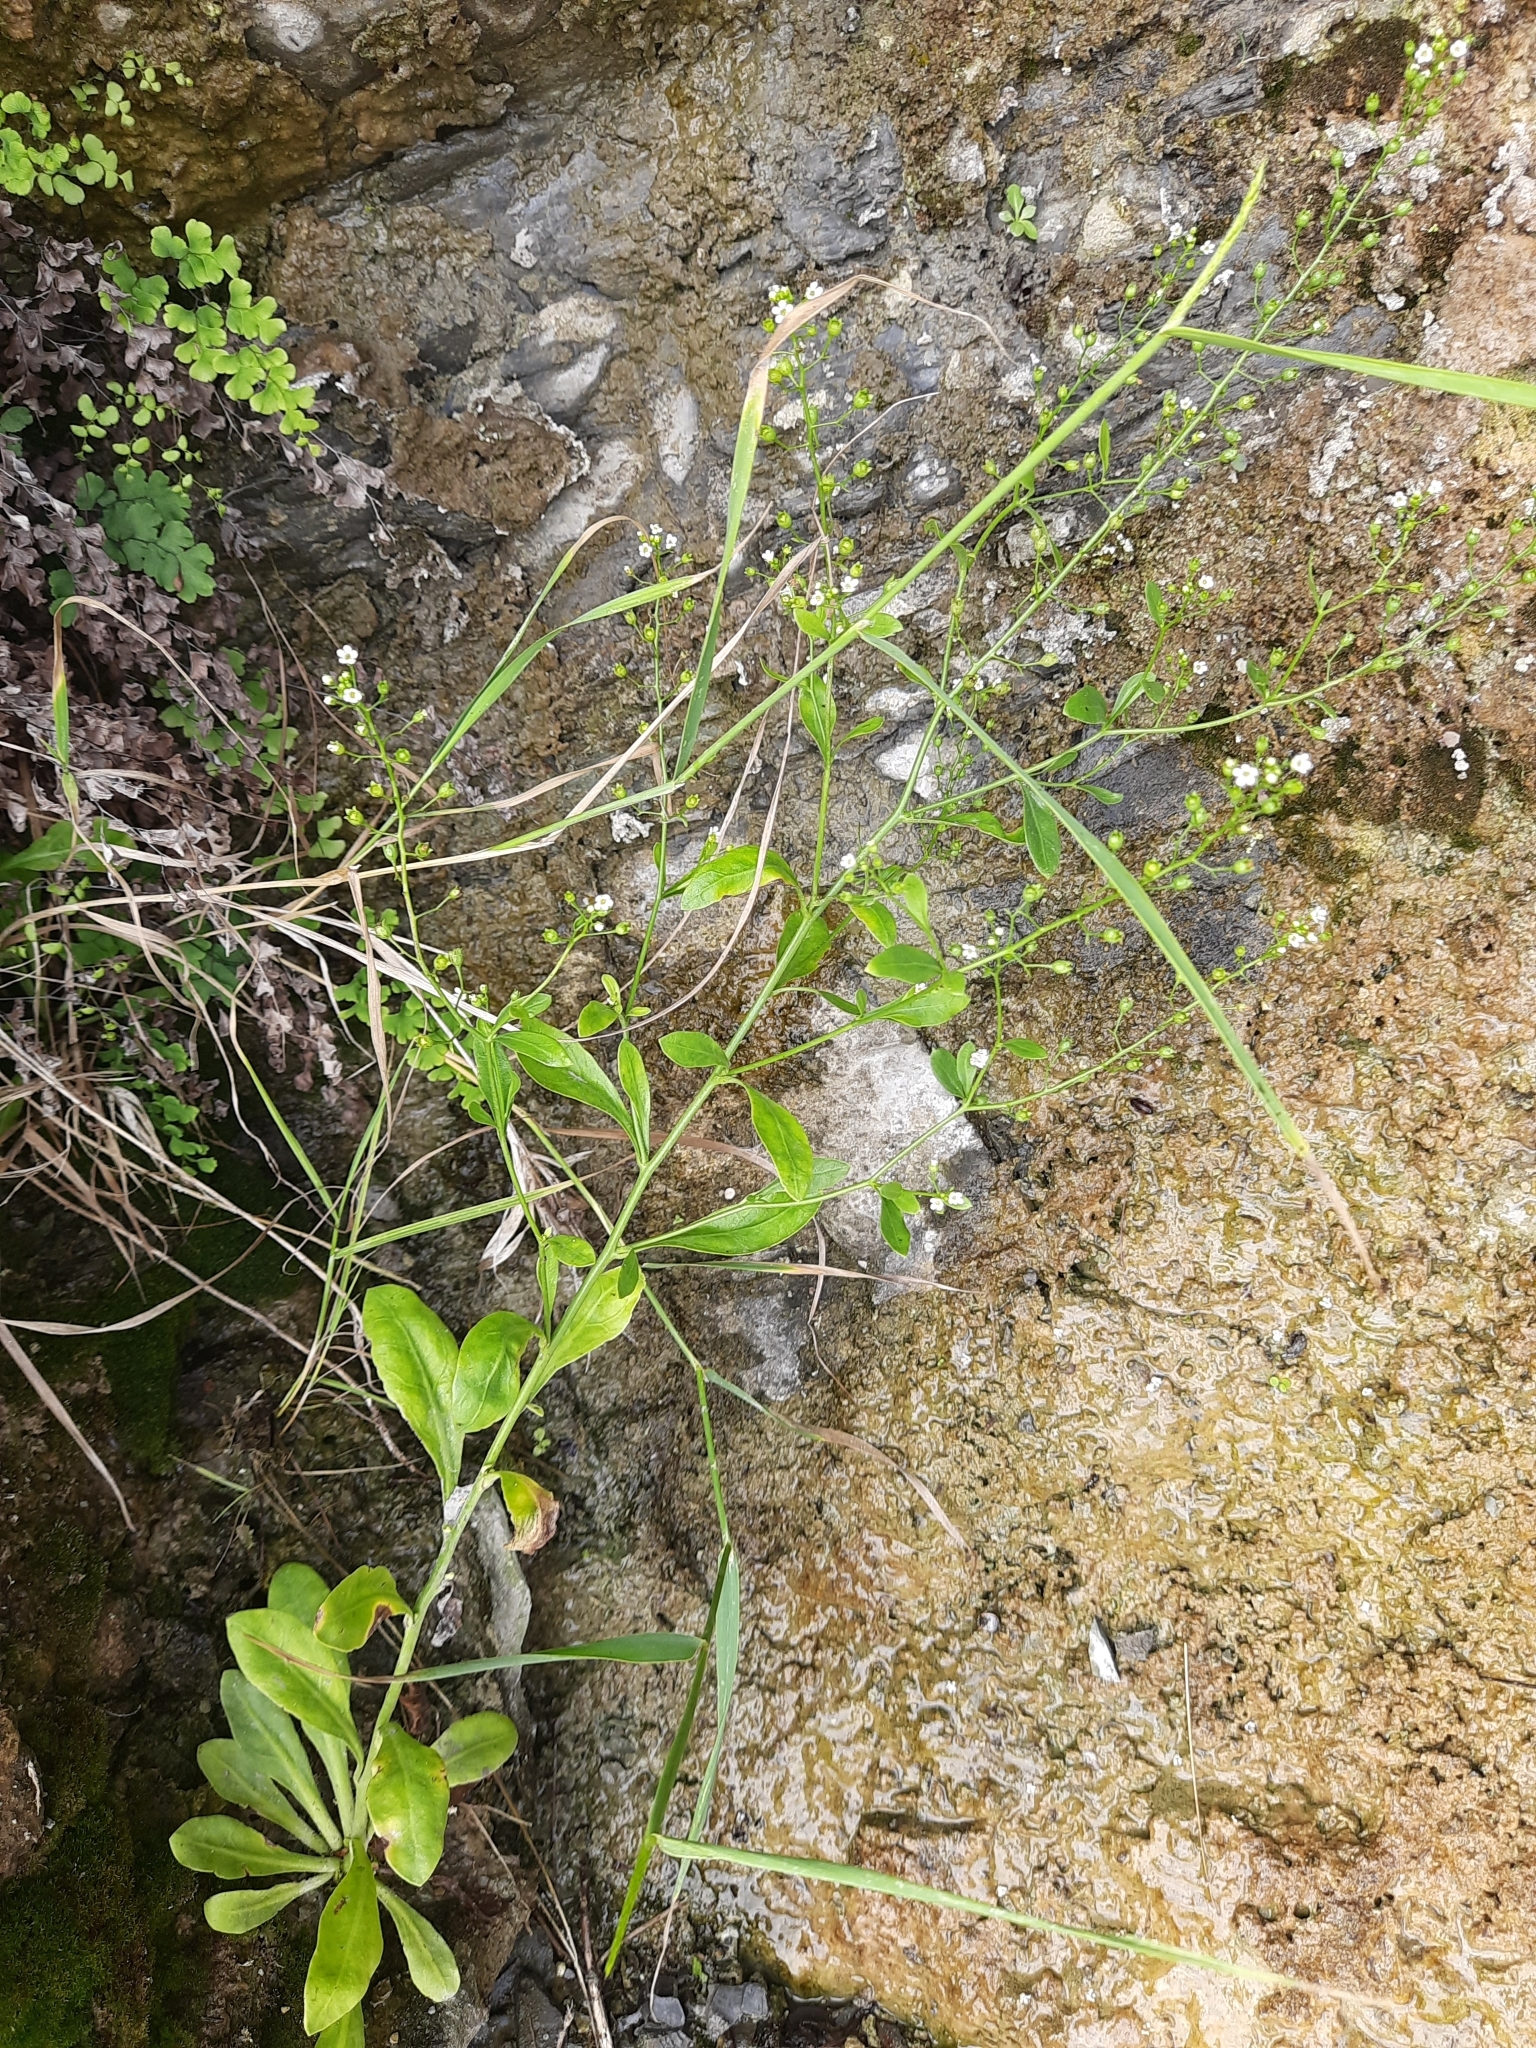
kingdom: Plantae
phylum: Tracheophyta
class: Magnoliopsida
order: Ericales
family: Primulaceae
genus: Samolus
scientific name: Samolus valerandi
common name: Brookweed
